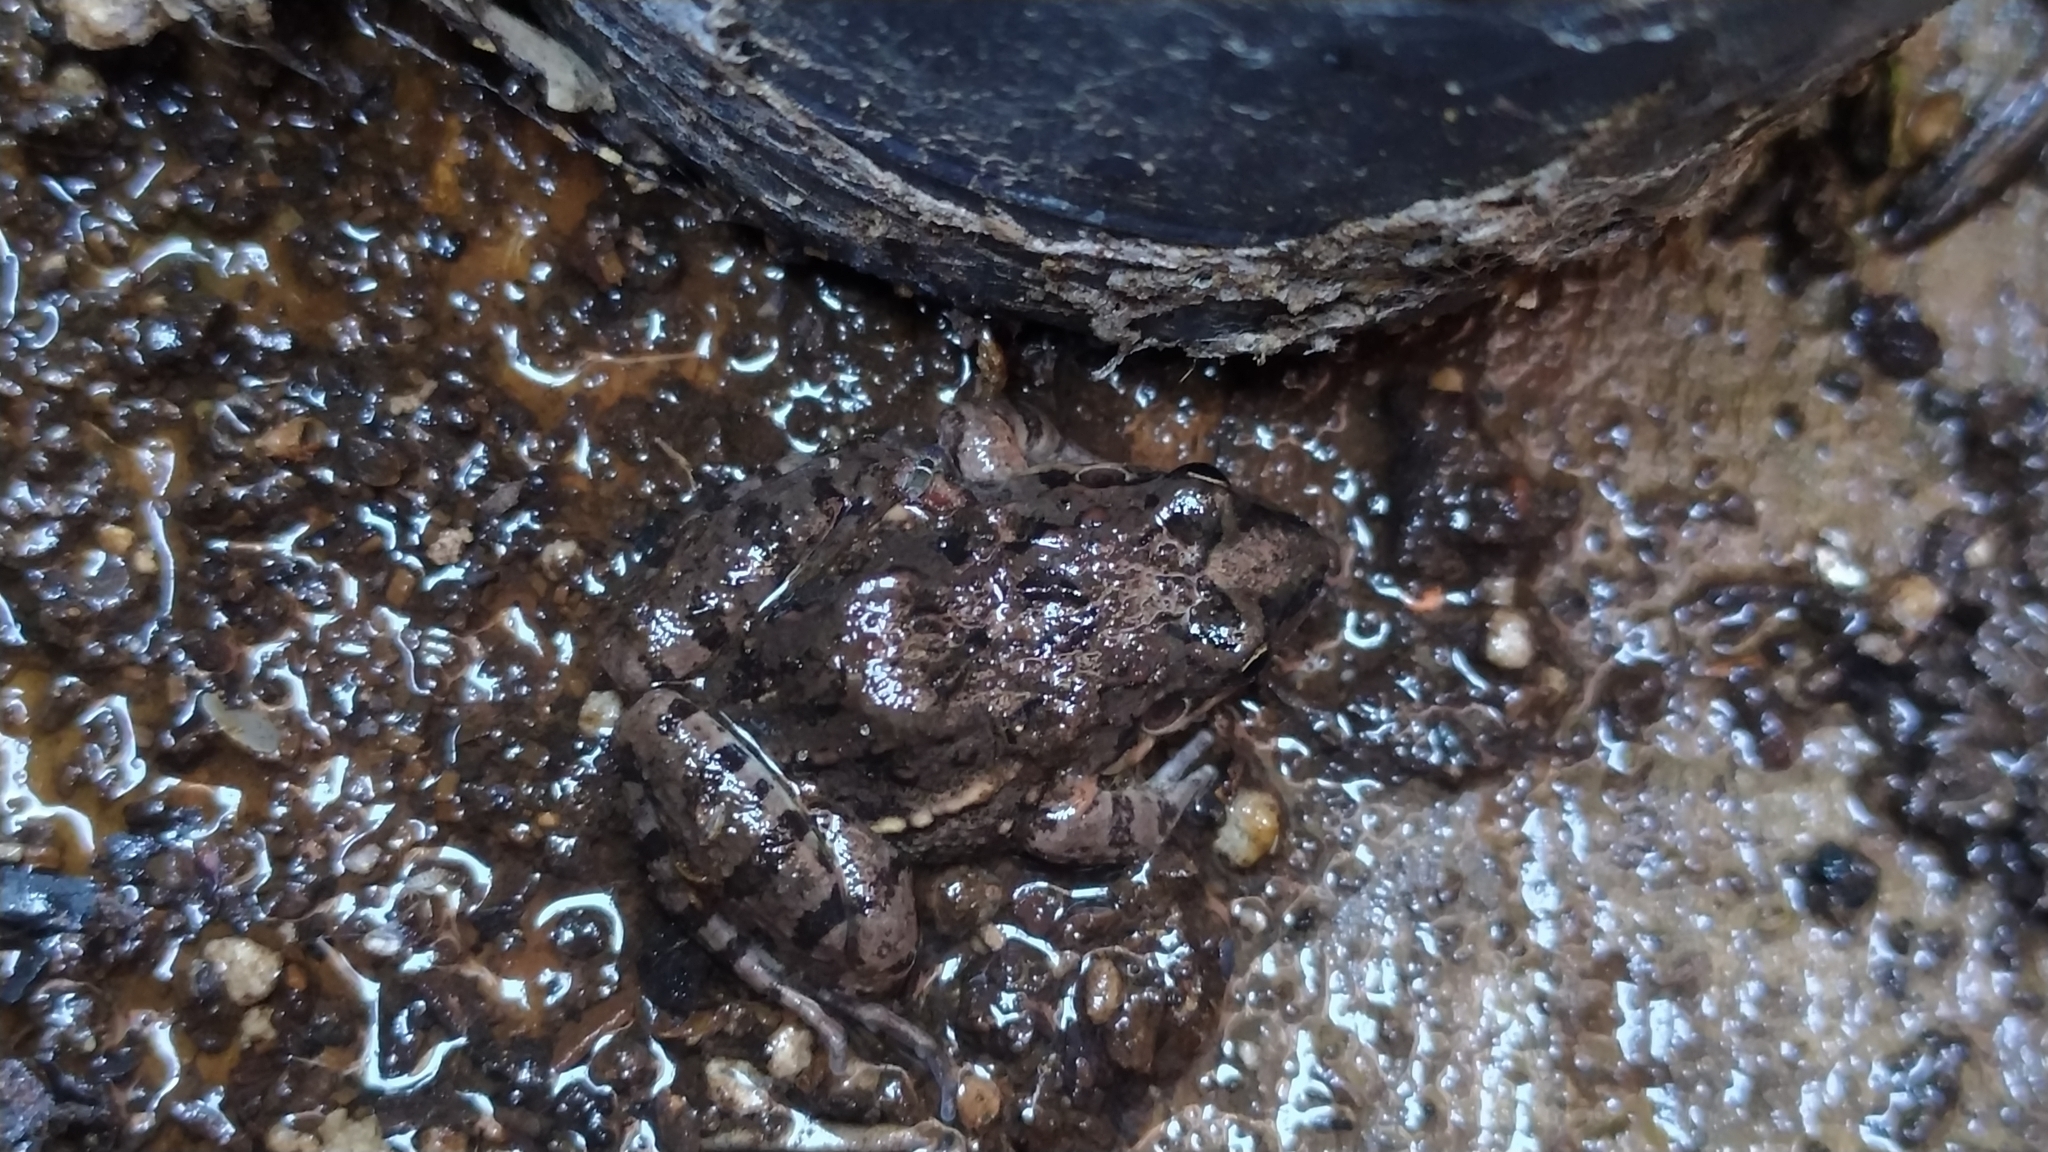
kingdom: Animalia
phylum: Chordata
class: Amphibia
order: Anura
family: Leptodactylidae
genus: Leptodactylus
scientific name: Leptodactylus latinasus
